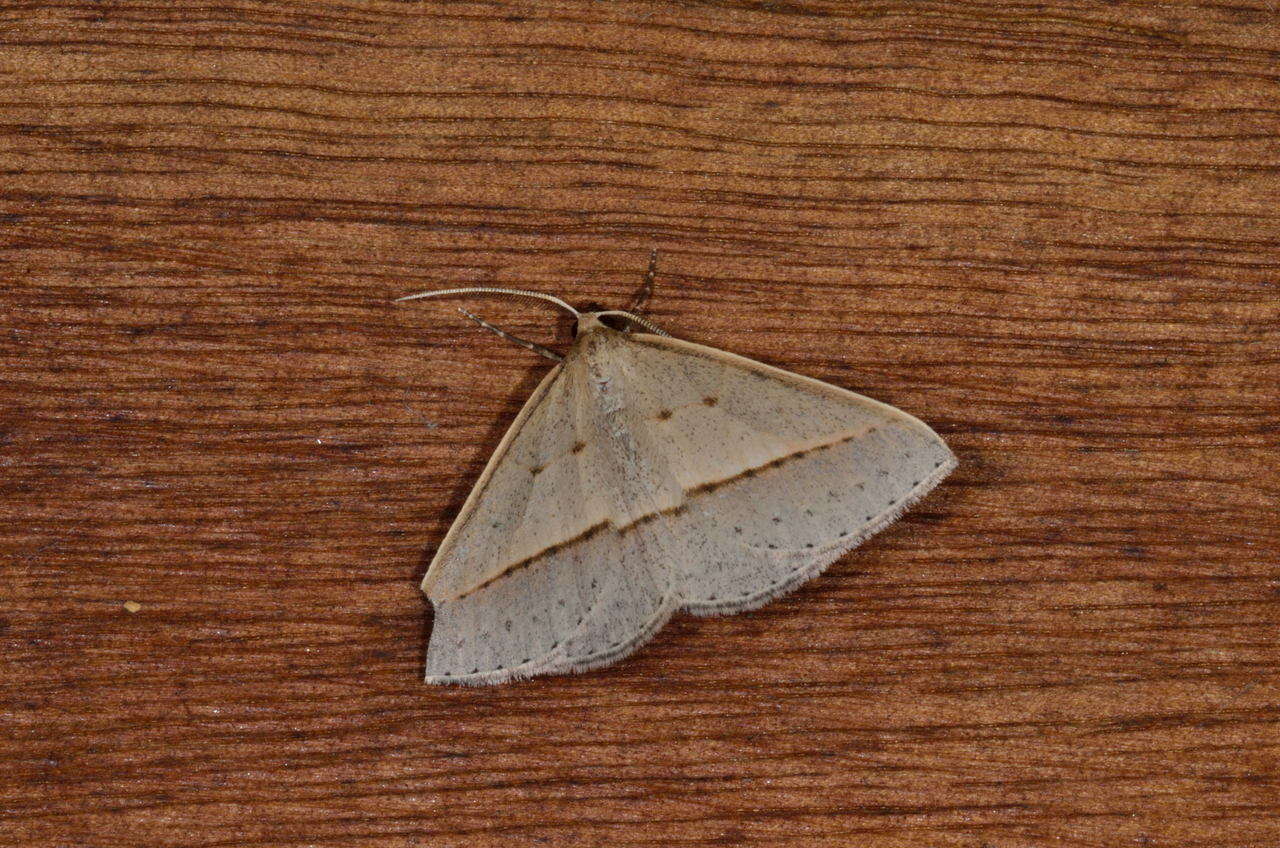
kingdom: Animalia
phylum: Arthropoda
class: Insecta
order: Lepidoptera
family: Geometridae
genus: Epidesmia
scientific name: Epidesmia tryxaria
